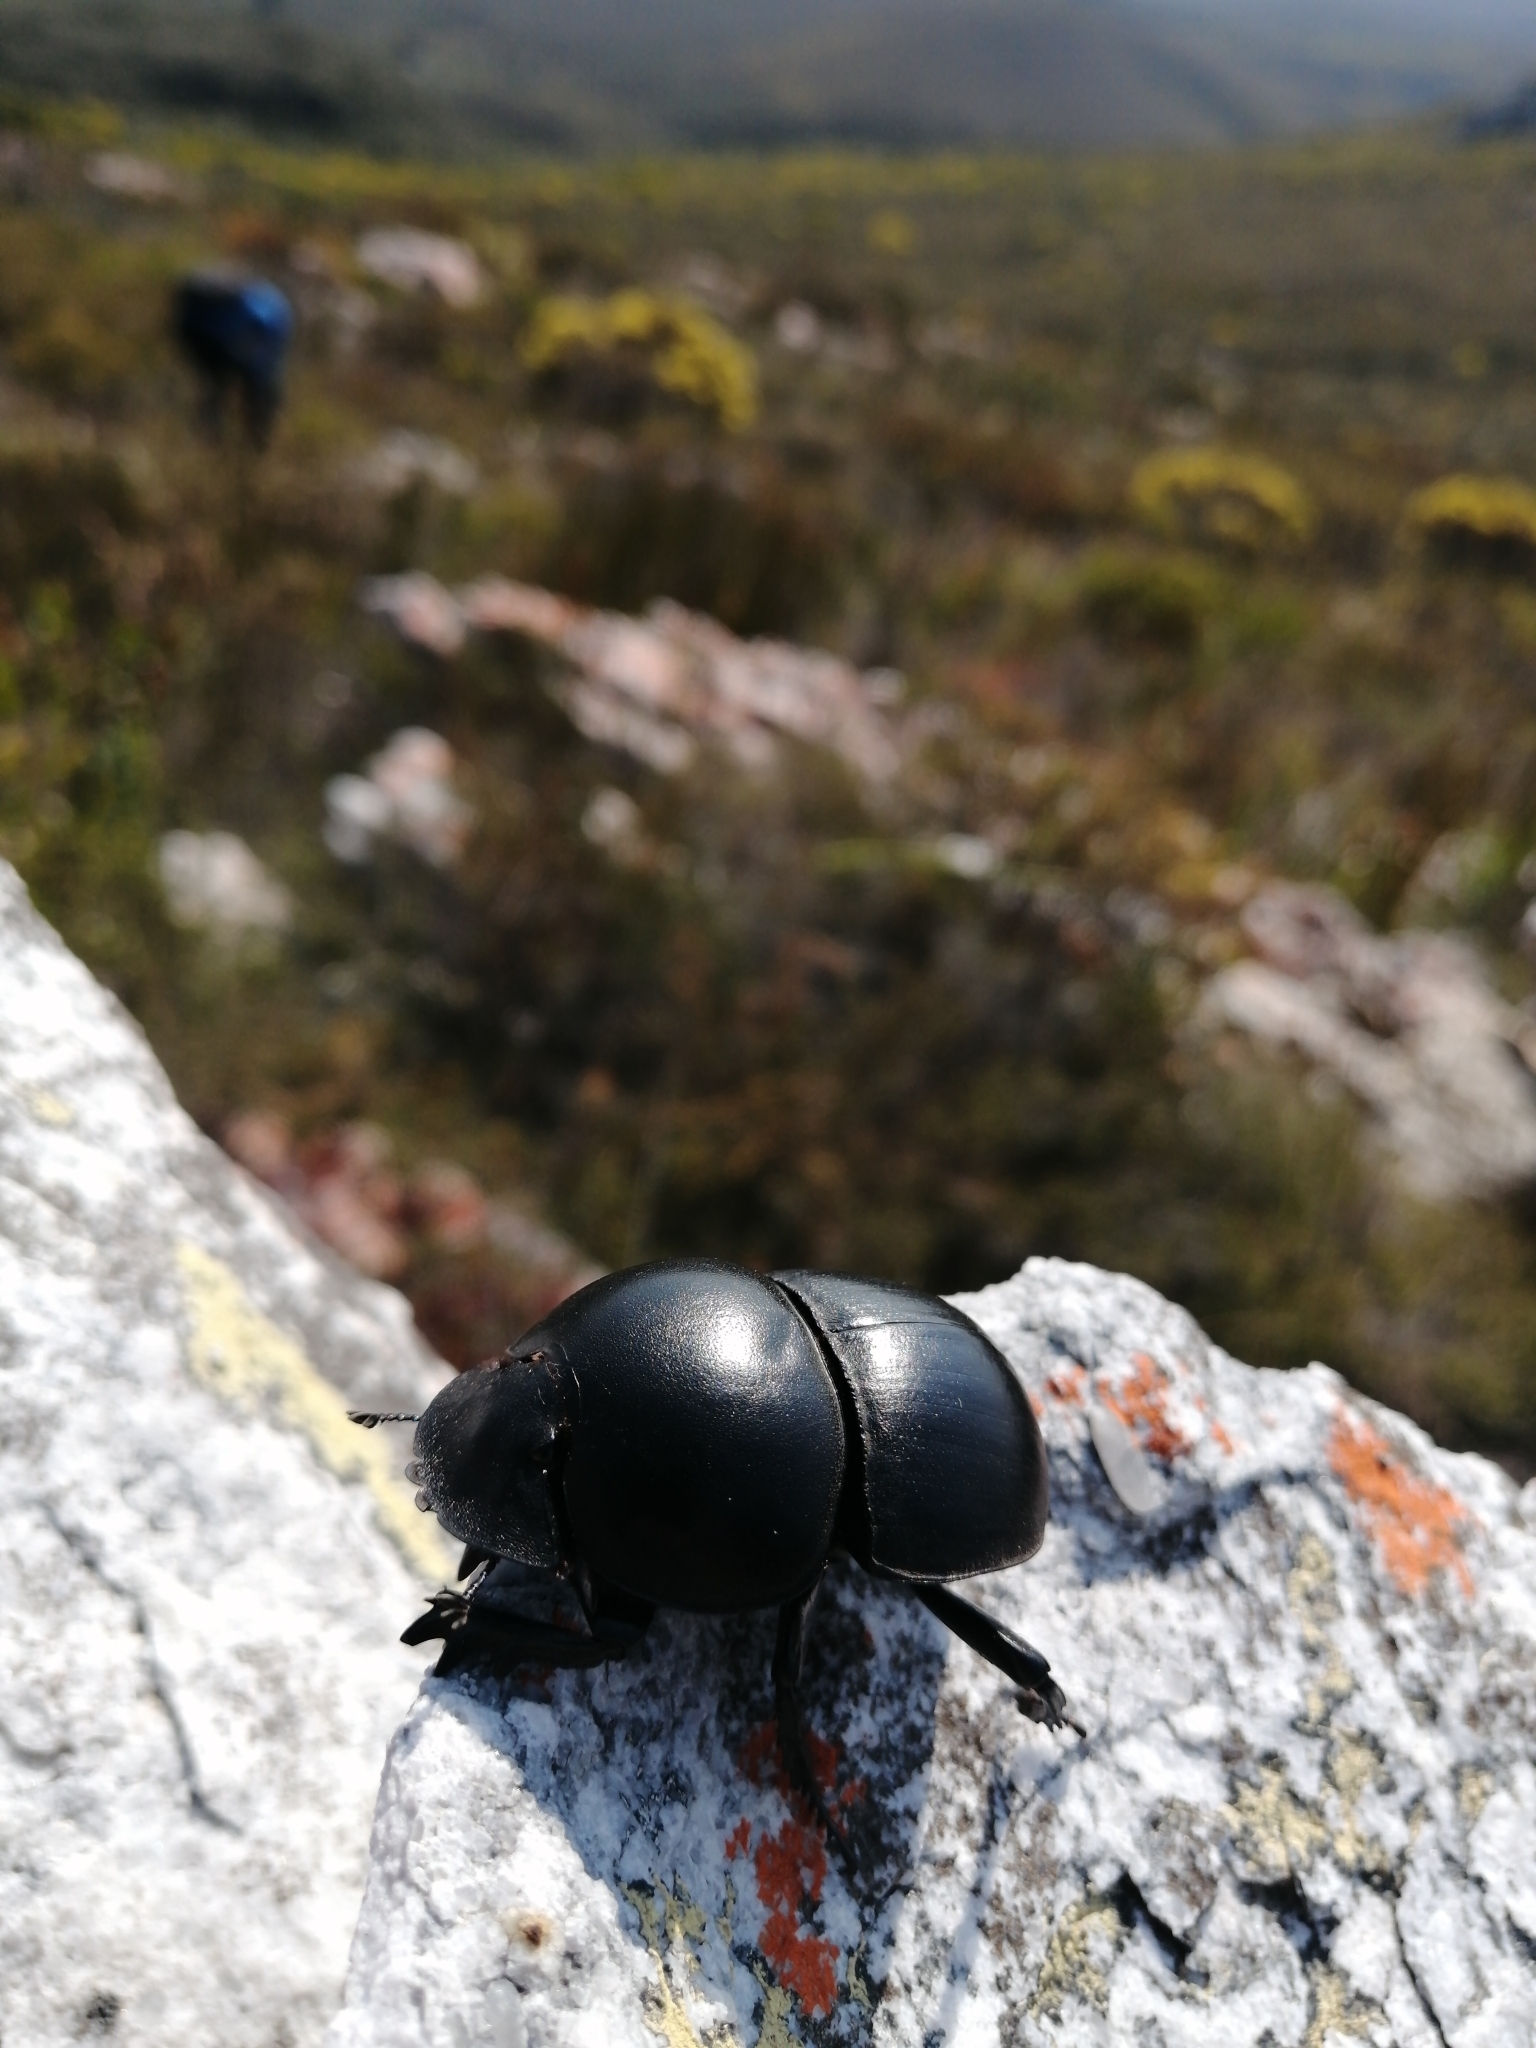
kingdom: Animalia
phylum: Arthropoda
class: Insecta
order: Coleoptera
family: Scarabaeidae
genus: Circellium
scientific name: Circellium bacchus
